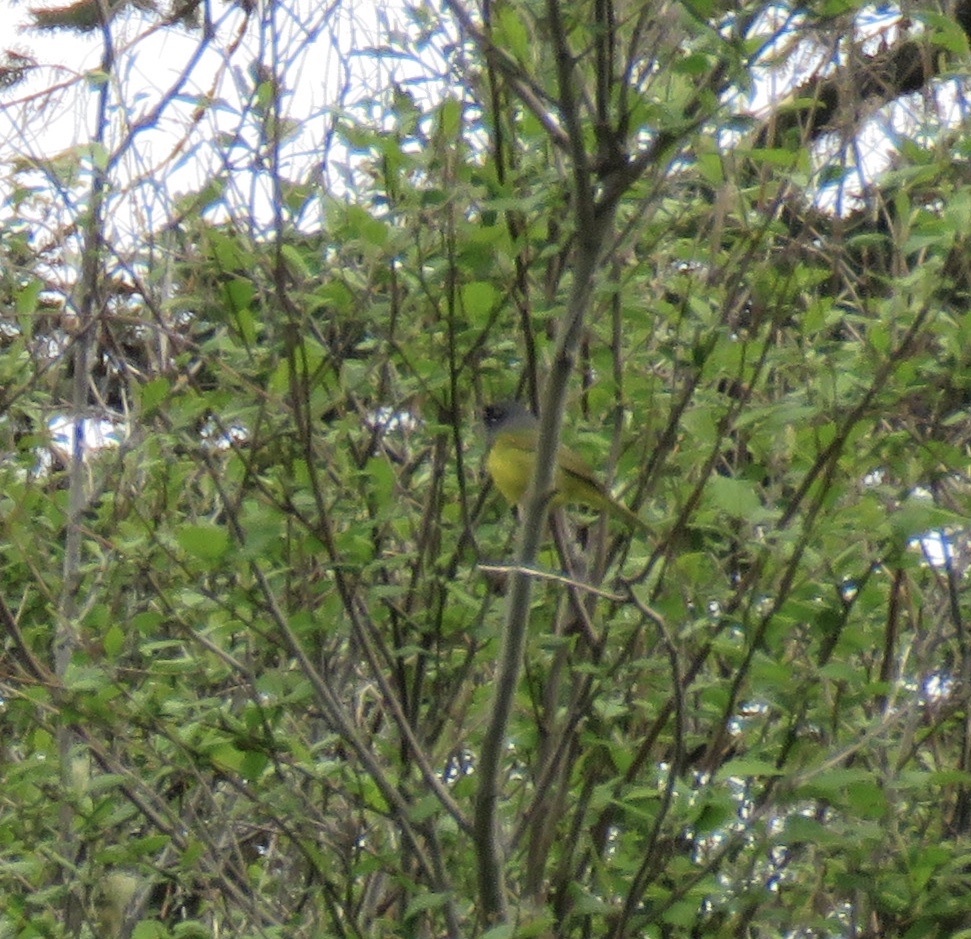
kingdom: Animalia
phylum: Chordata
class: Aves
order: Passeriformes
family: Parulidae
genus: Geothlypis
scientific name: Geothlypis tolmiei
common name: Macgillivray's warbler
